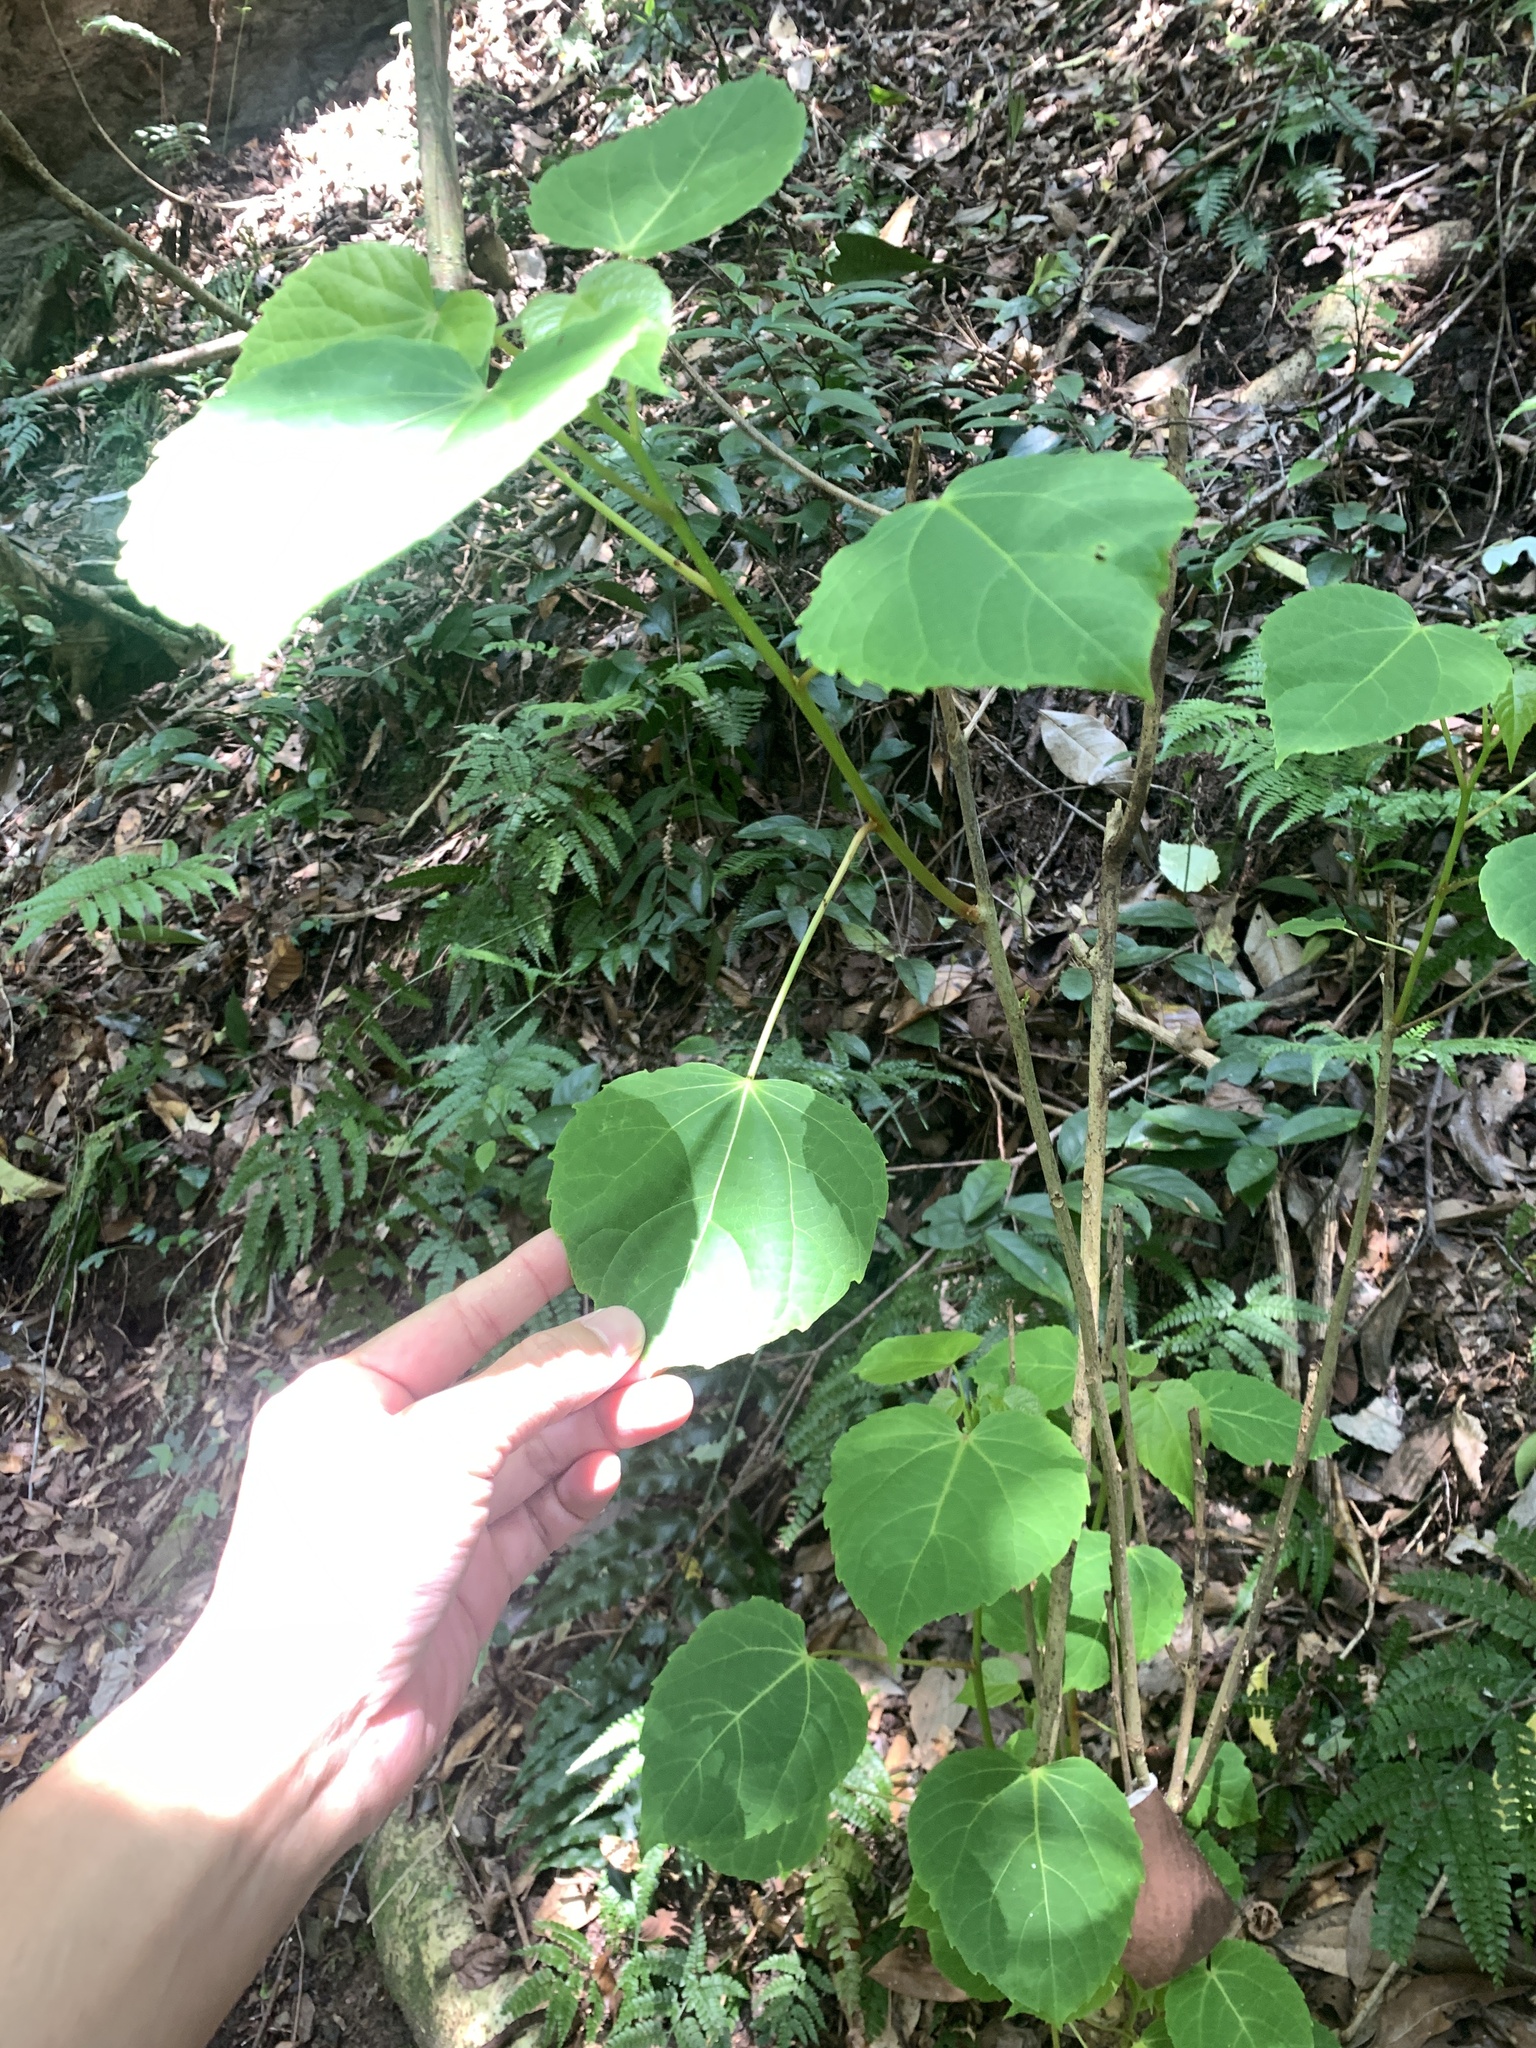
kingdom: Plantae
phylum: Tracheophyta
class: Magnoliopsida
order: Malpighiales
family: Salicaceae
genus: Idesia
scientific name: Idesia polycarpa
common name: Idesia tree
